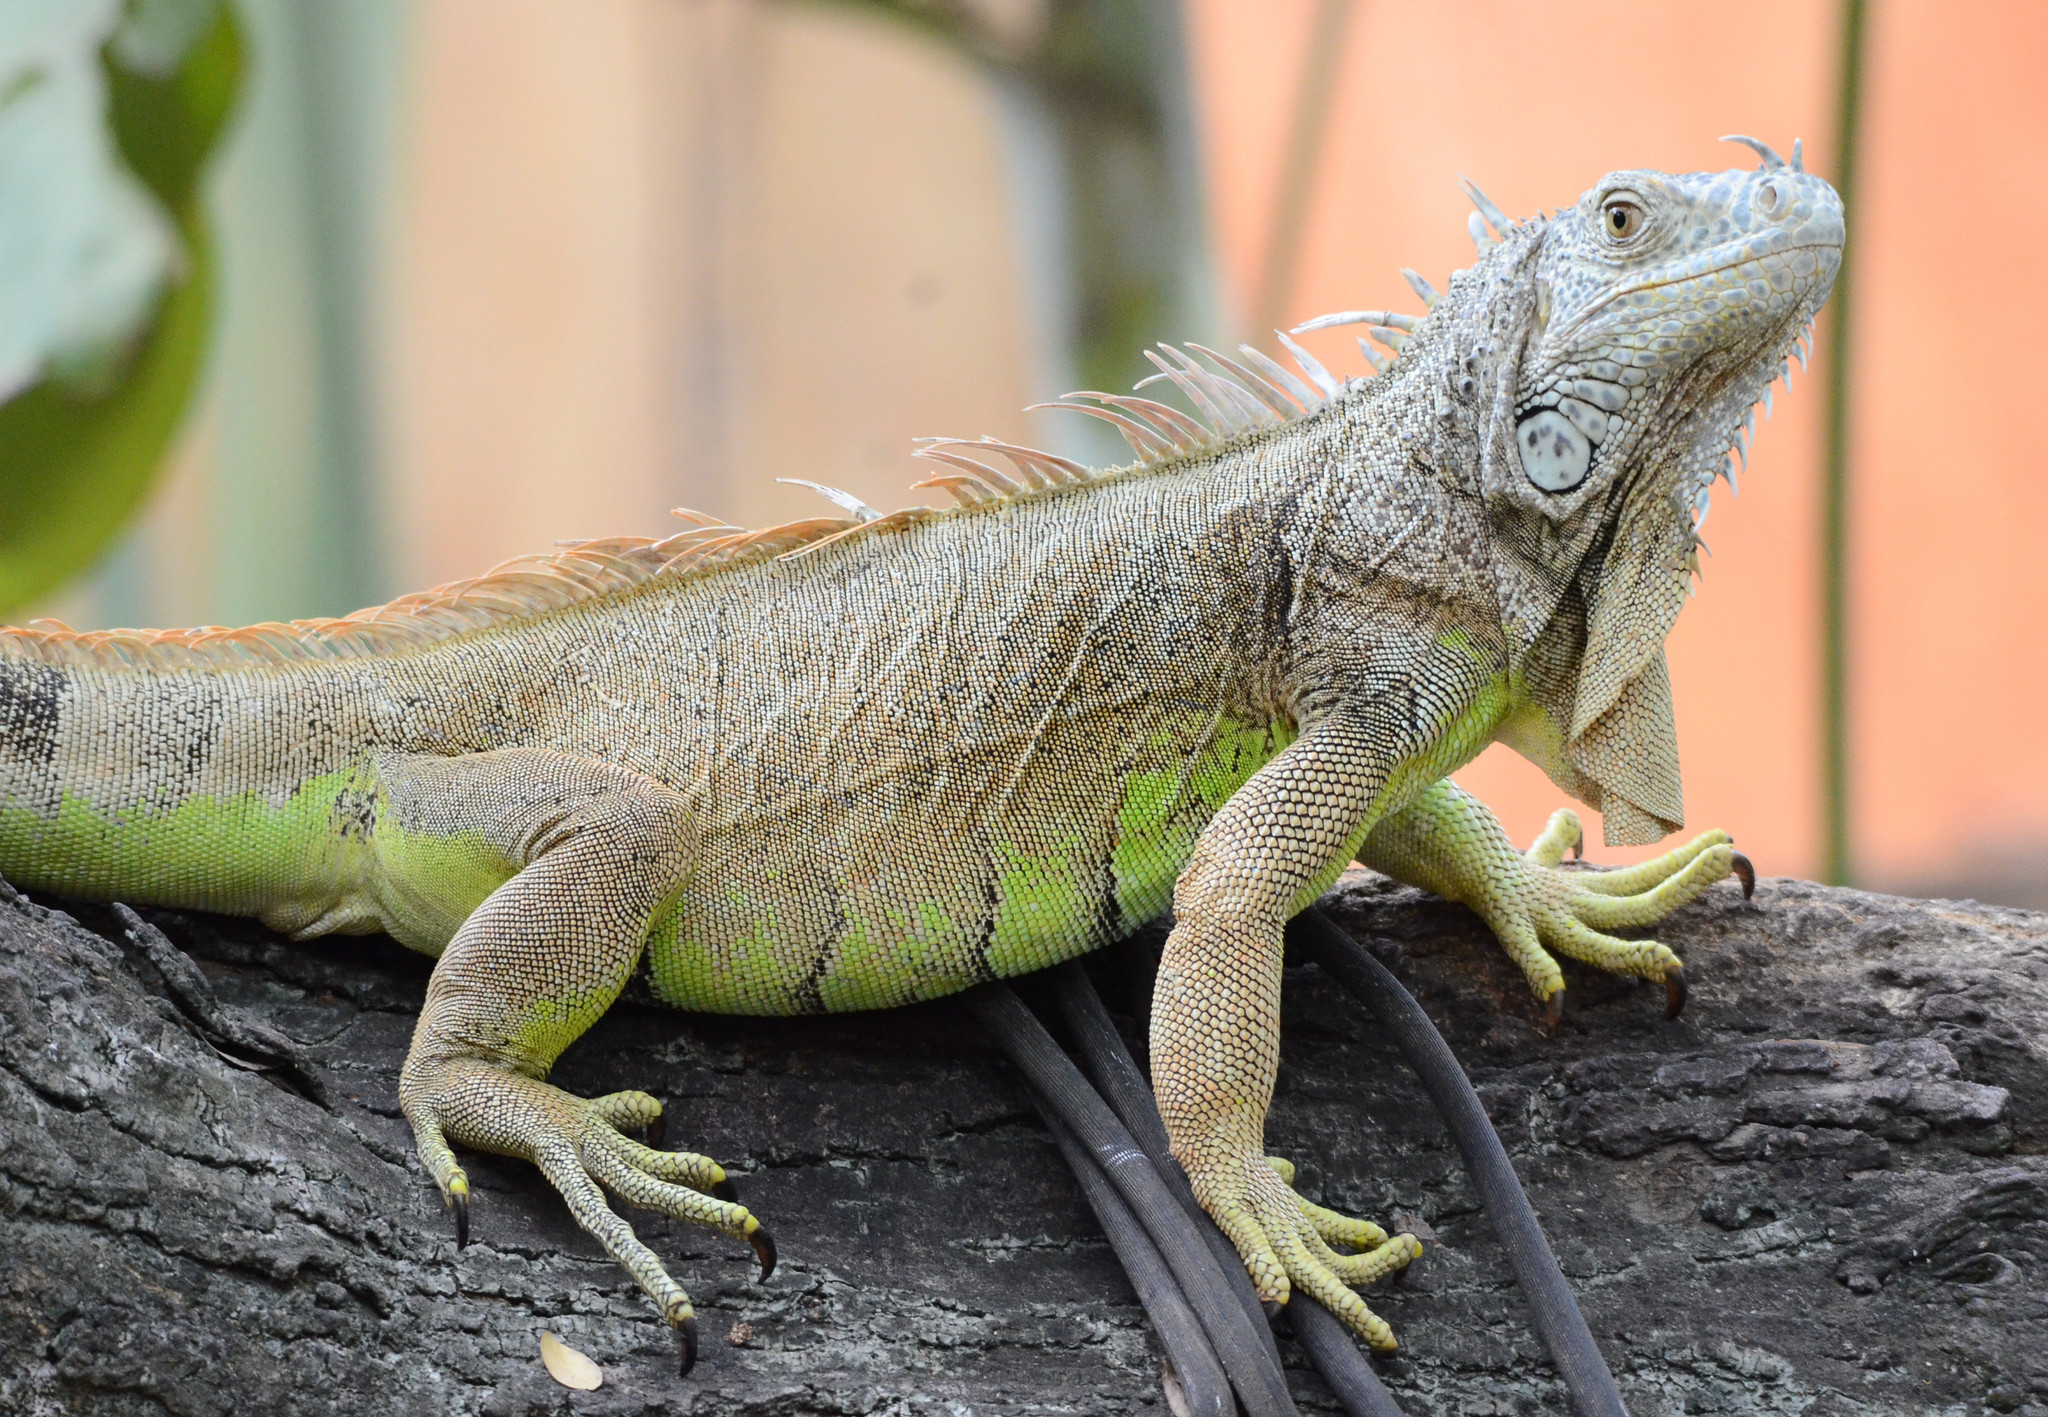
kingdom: Animalia
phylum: Chordata
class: Squamata
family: Iguanidae
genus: Iguana
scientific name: Iguana iguana
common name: Green iguana
